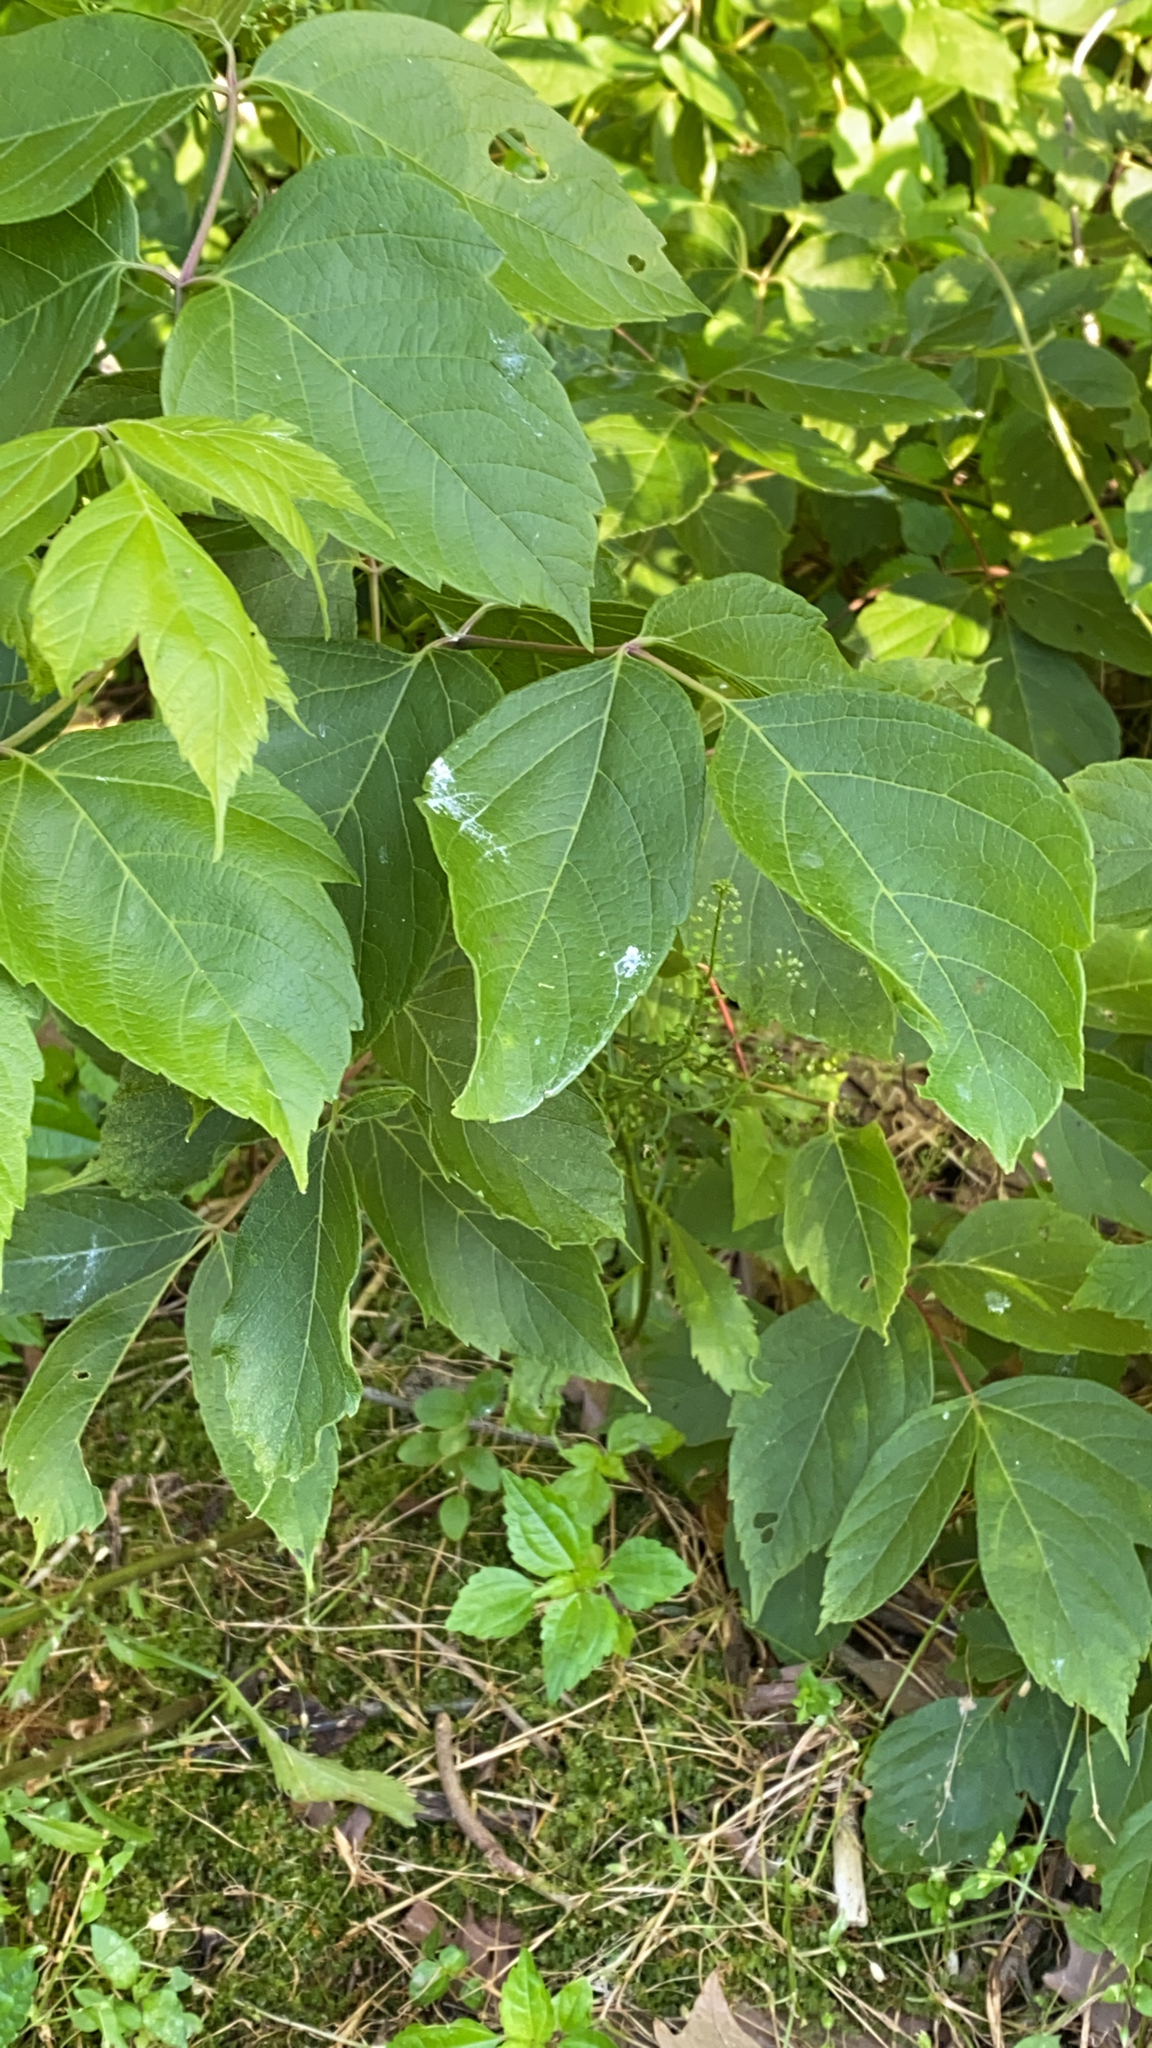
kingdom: Plantae
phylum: Tracheophyta
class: Magnoliopsida
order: Sapindales
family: Sapindaceae
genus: Acer
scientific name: Acer negundo
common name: Ashleaf maple
